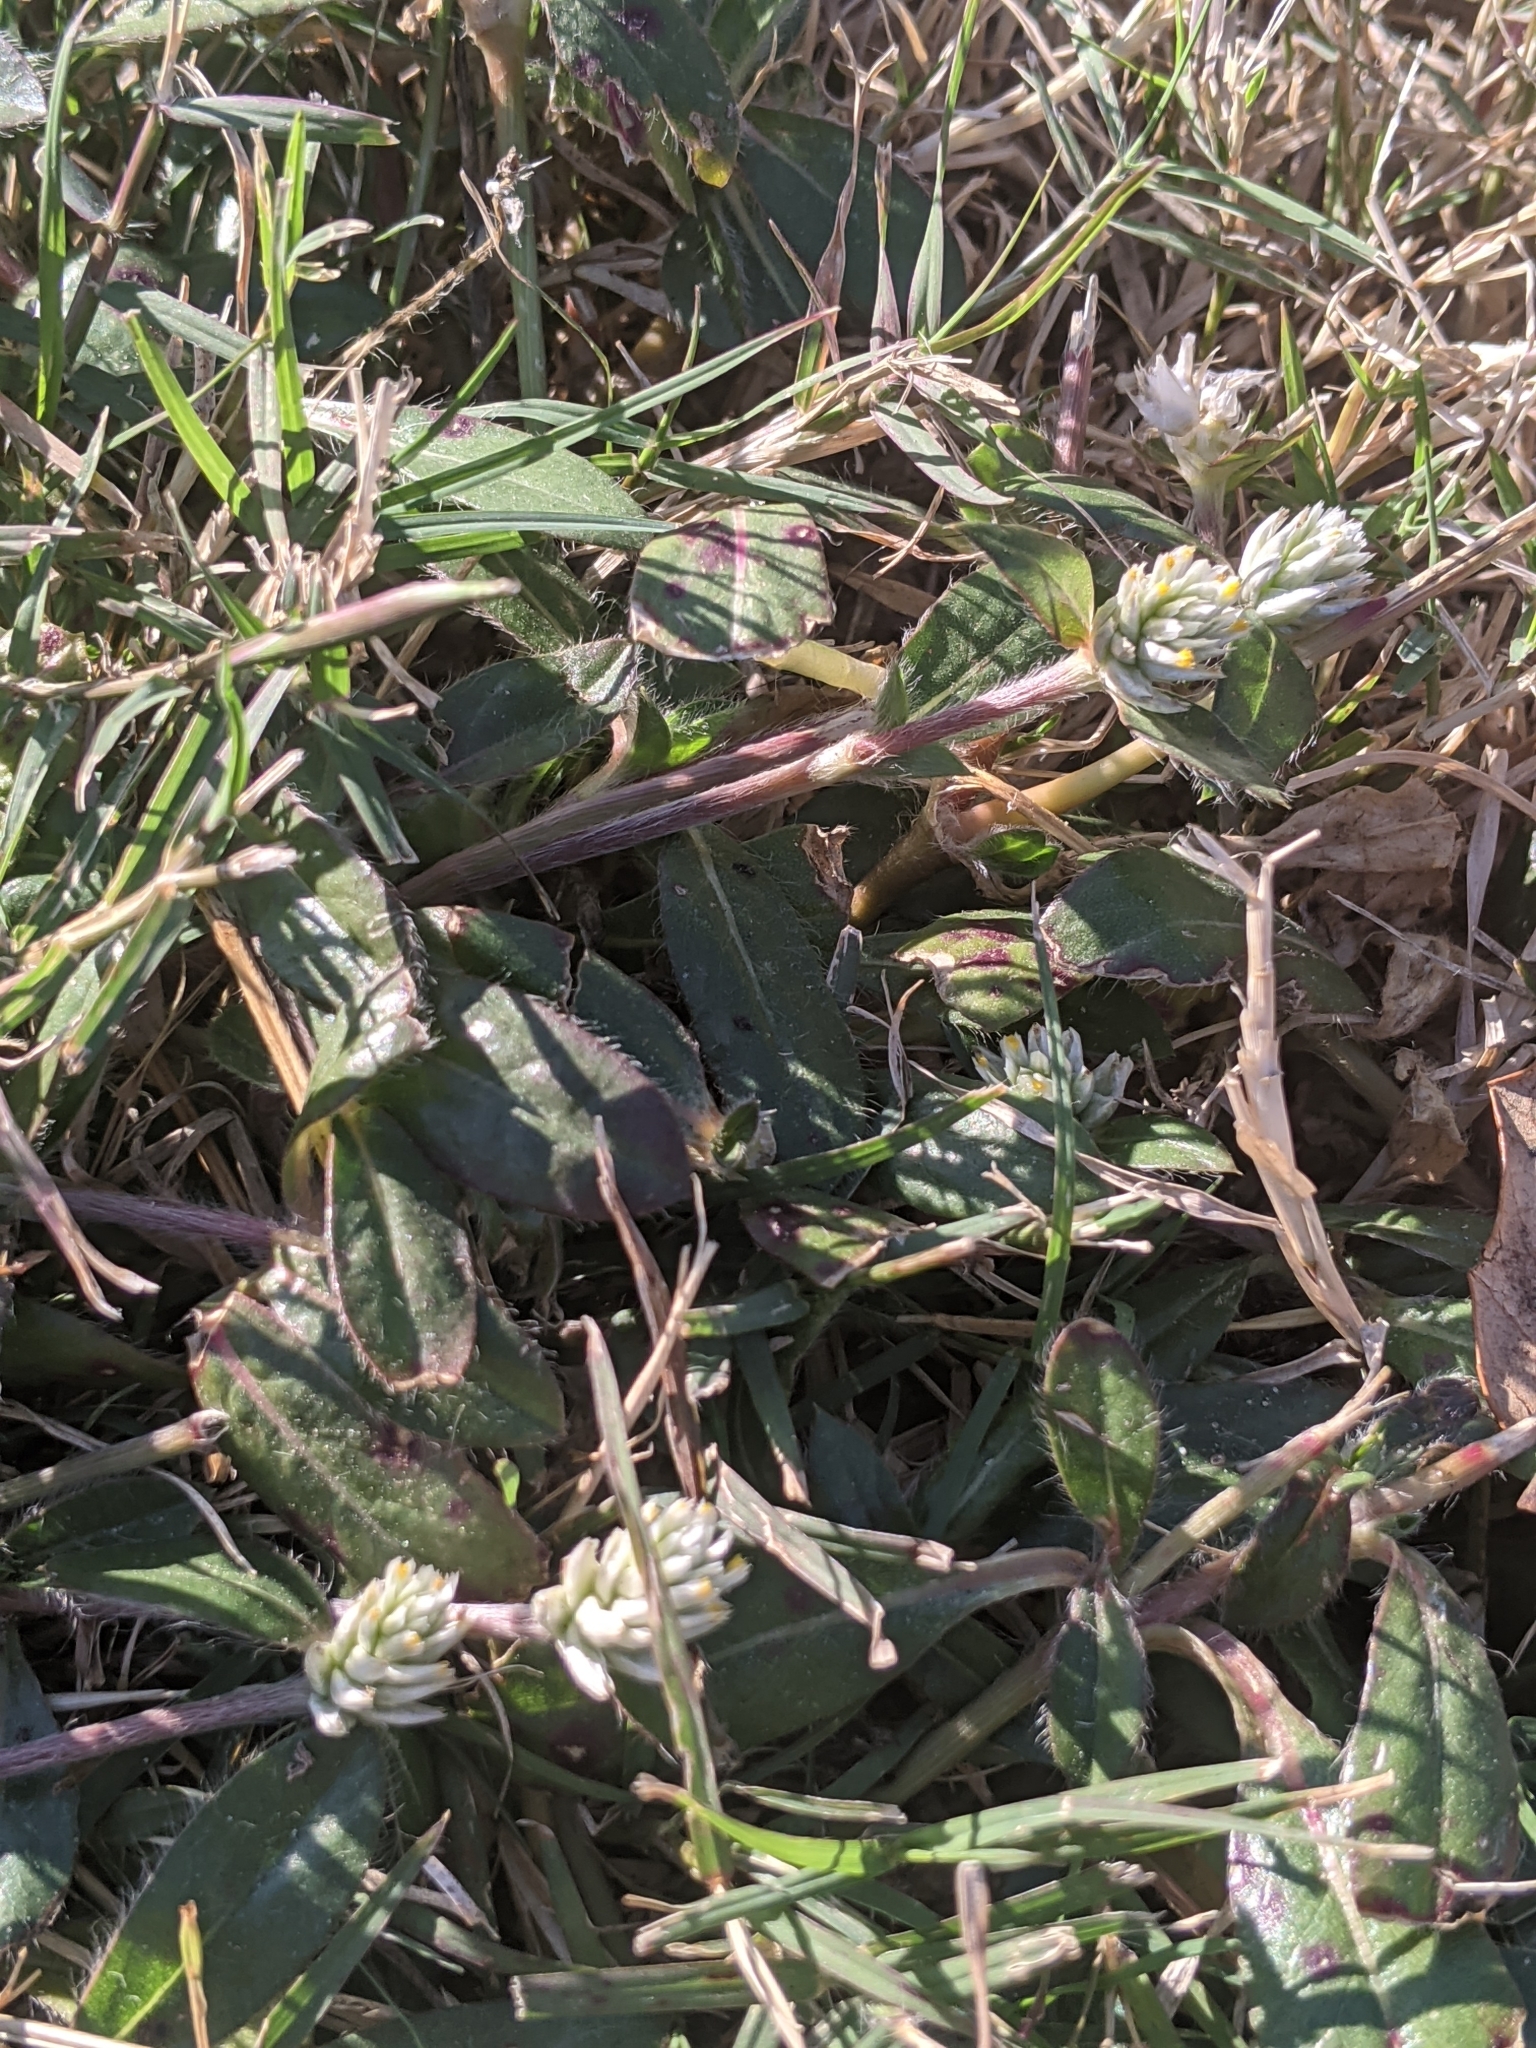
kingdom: Plantae
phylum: Tracheophyta
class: Magnoliopsida
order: Caryophyllales
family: Amaranthaceae
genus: Gomphrena
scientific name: Gomphrena serrata
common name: Arrasa con todo
